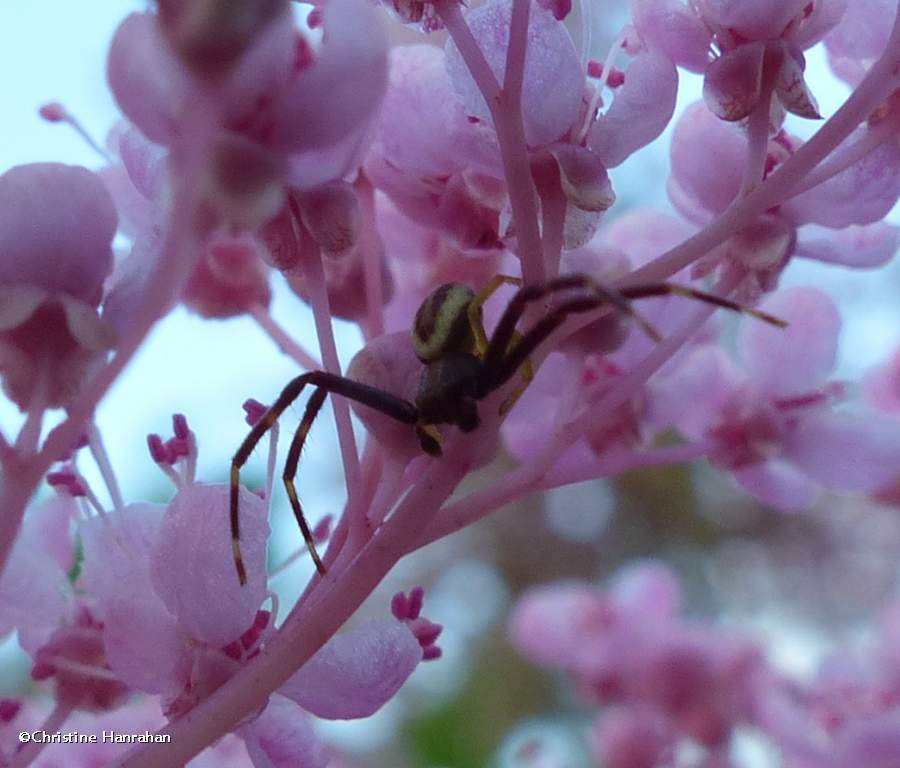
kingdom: Animalia
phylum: Arthropoda
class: Arachnida
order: Araneae
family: Thomisidae
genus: Misumena
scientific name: Misumena vatia
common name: Goldenrod crab spider
